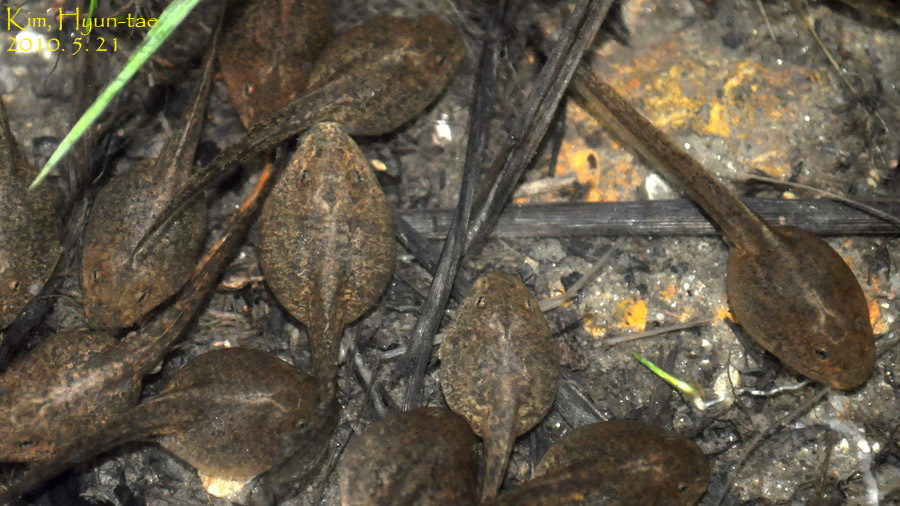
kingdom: Animalia
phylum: Chordata
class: Amphibia
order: Anura
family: Ranidae
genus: Rana
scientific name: Rana uenoi
